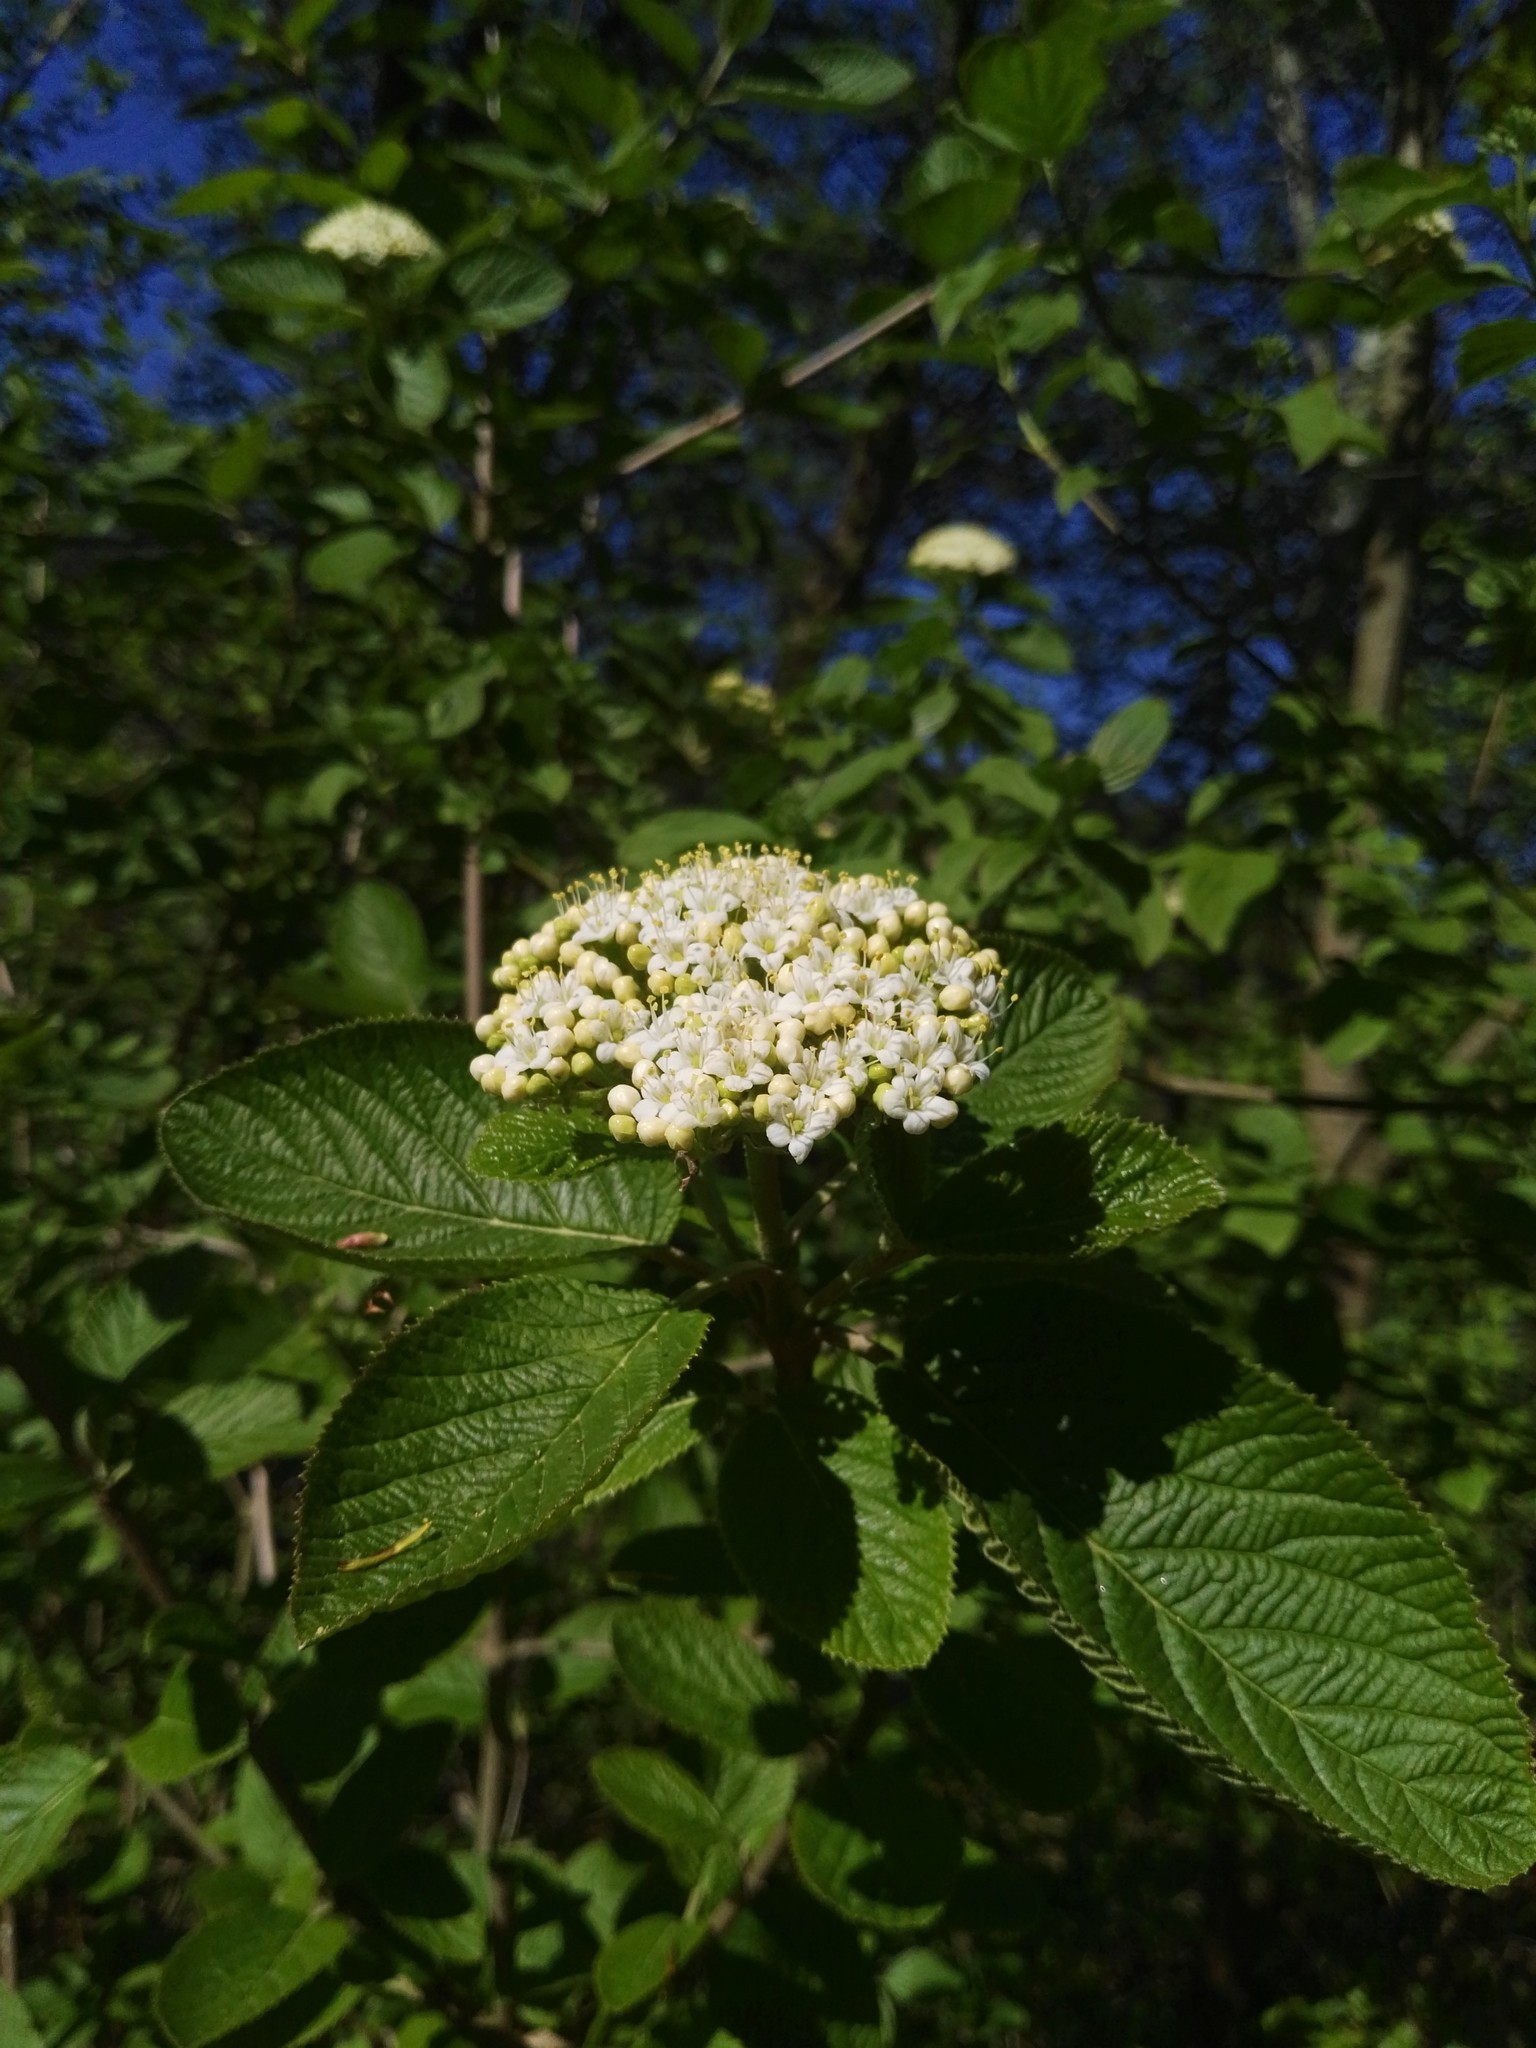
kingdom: Plantae
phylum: Tracheophyta
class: Magnoliopsida
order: Dipsacales
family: Viburnaceae
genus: Viburnum
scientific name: Viburnum lantana
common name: Wayfaring tree
